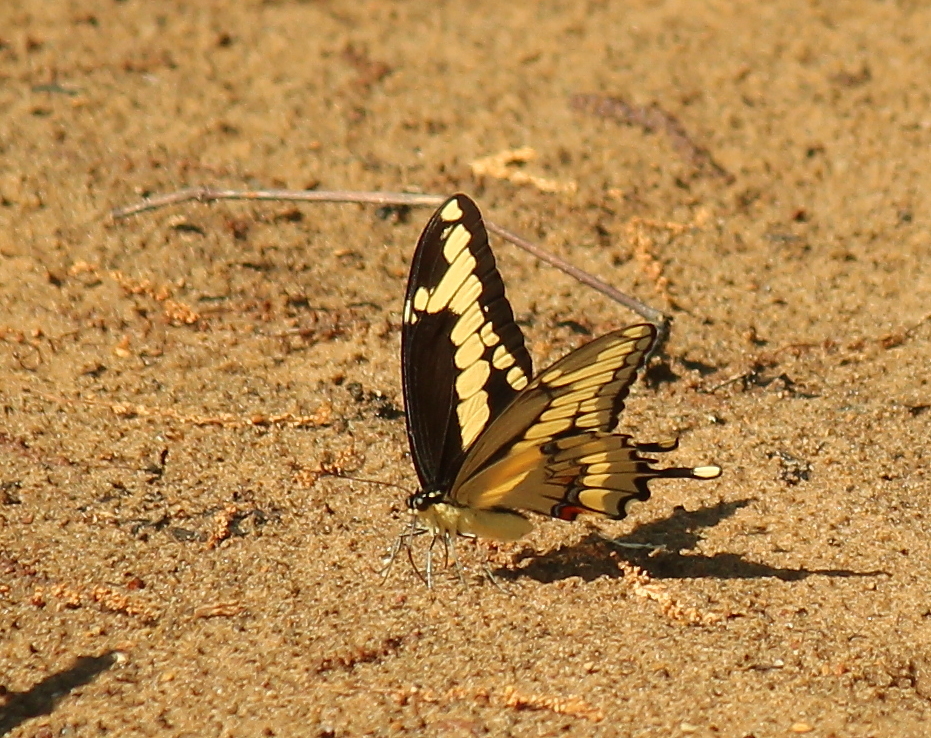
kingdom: Animalia
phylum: Arthropoda
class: Insecta
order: Lepidoptera
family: Papilionidae
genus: Papilio
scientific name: Papilio cresphontes
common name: Giant swallowtail
